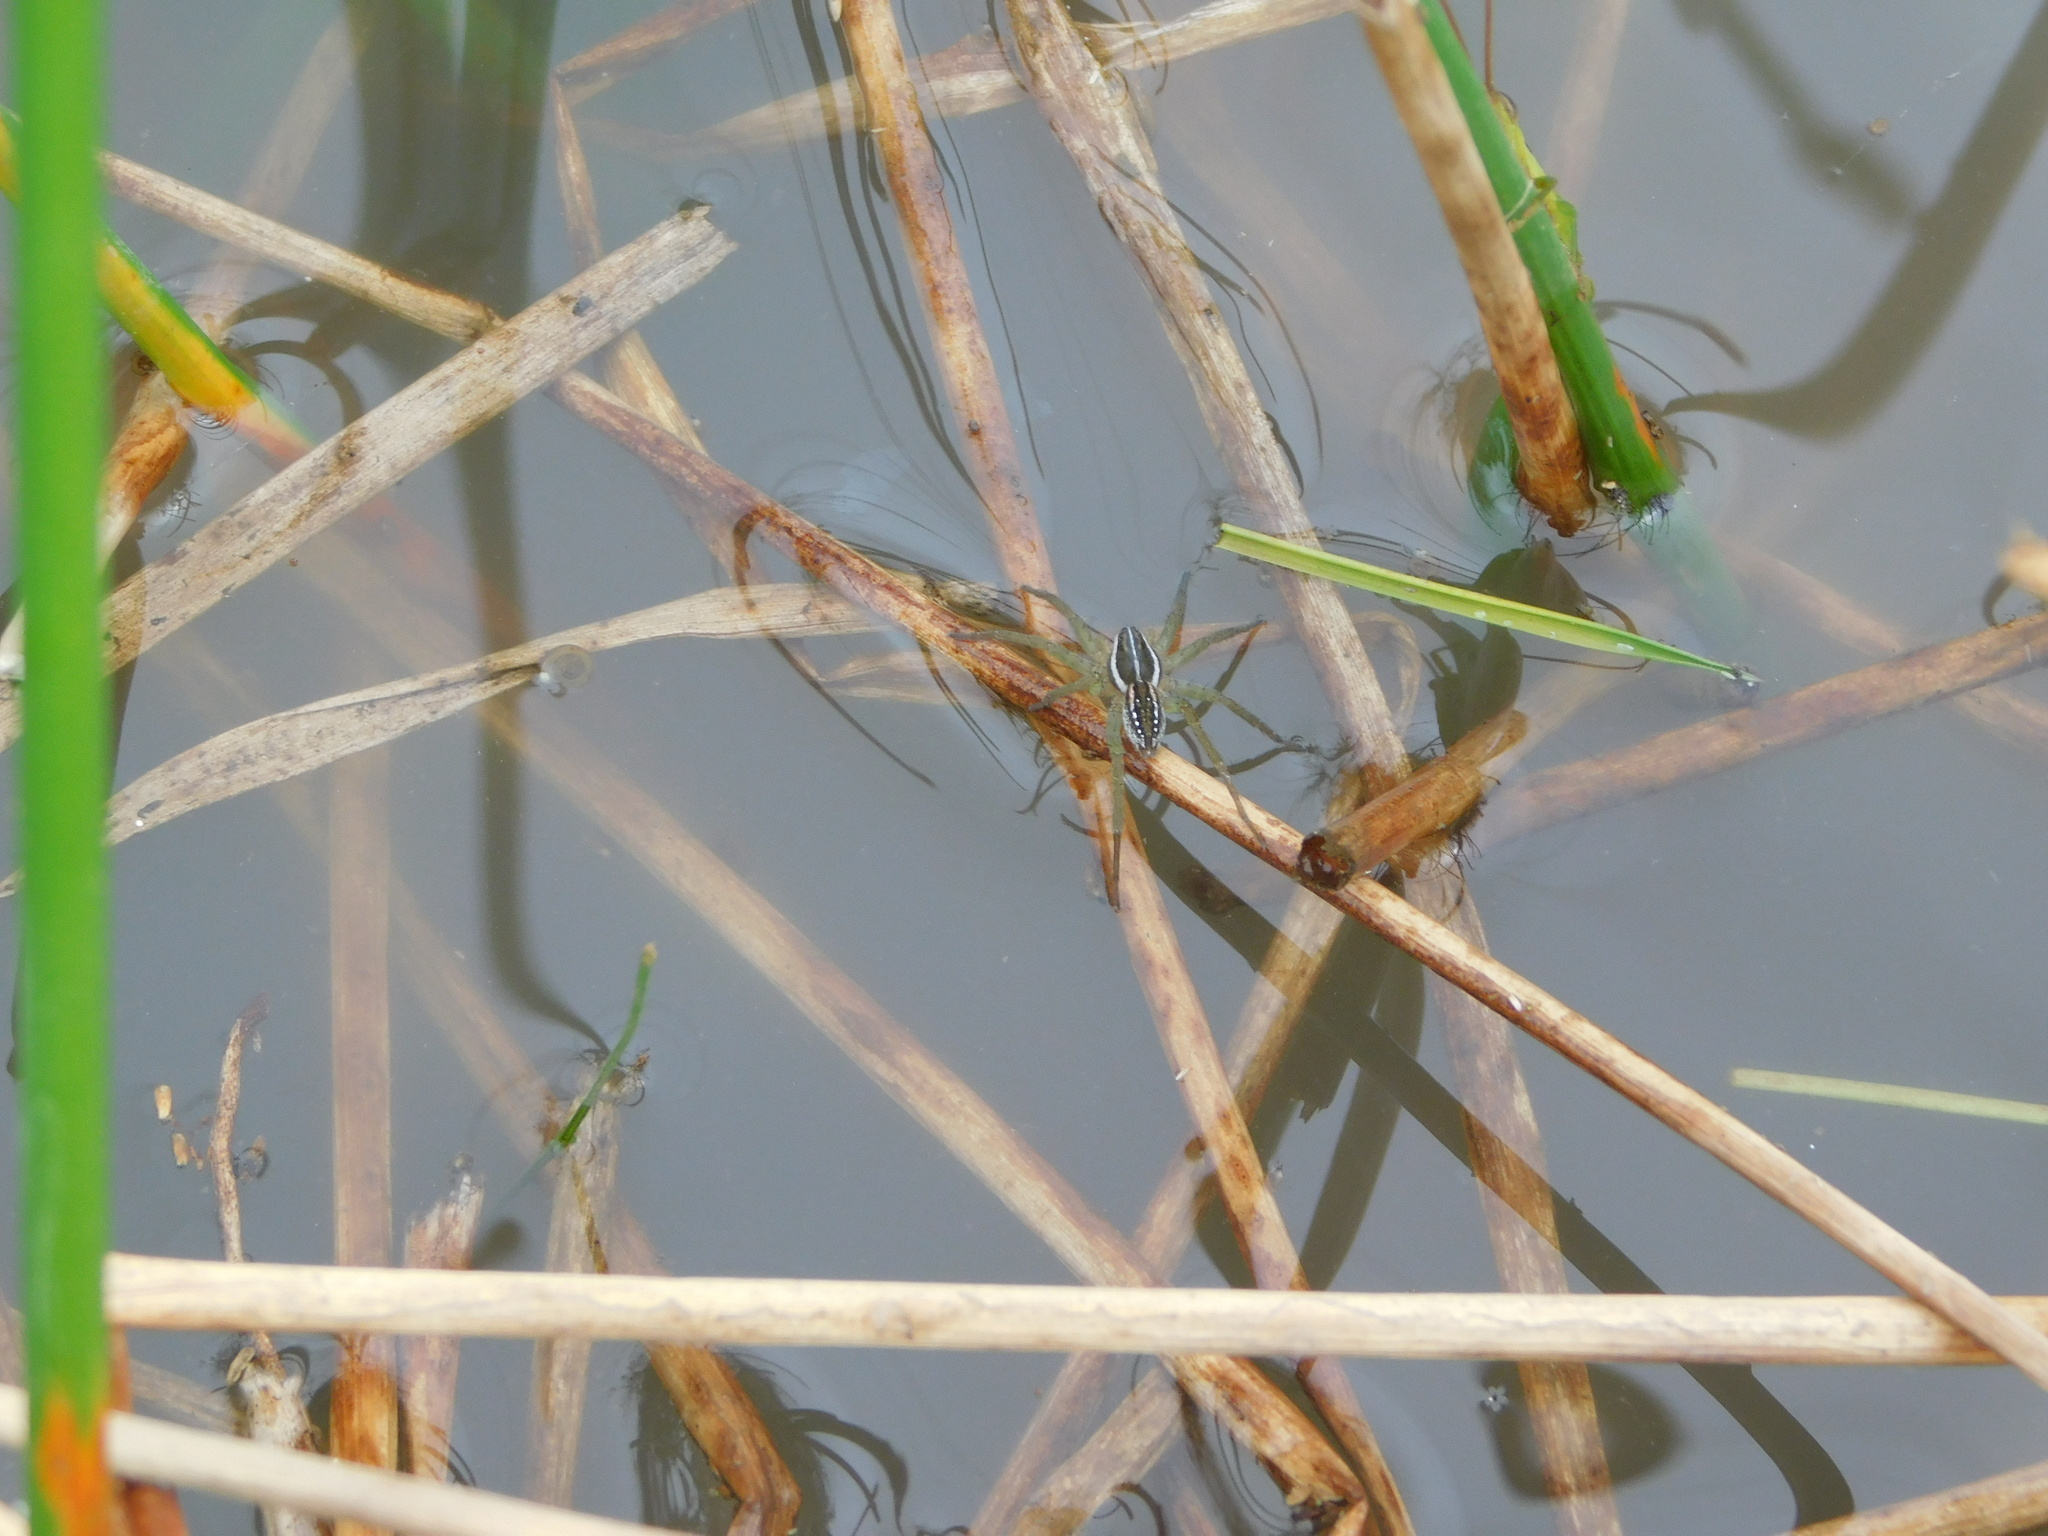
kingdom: Animalia
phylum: Arthropoda
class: Arachnida
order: Araneae
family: Lycosidae
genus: Diapontia
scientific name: Diapontia uruguayensis
